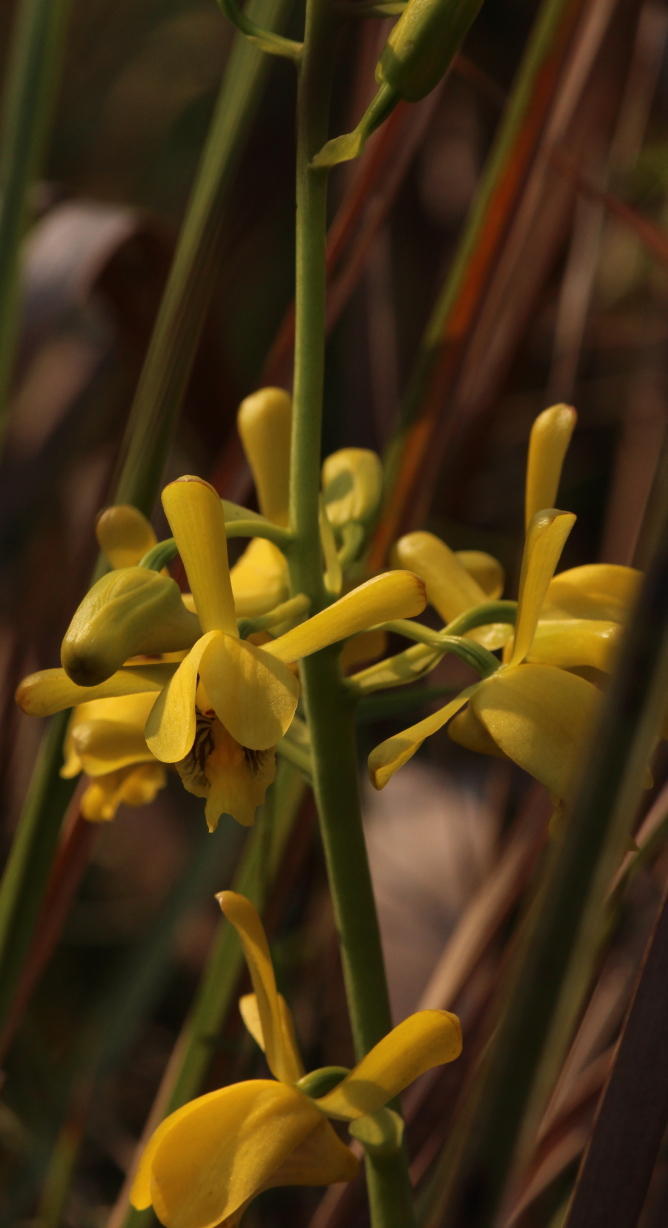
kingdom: Plantae
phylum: Tracheophyta
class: Liliopsida
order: Asparagales
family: Orchidaceae
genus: Eulophia
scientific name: Eulophia angolensis
